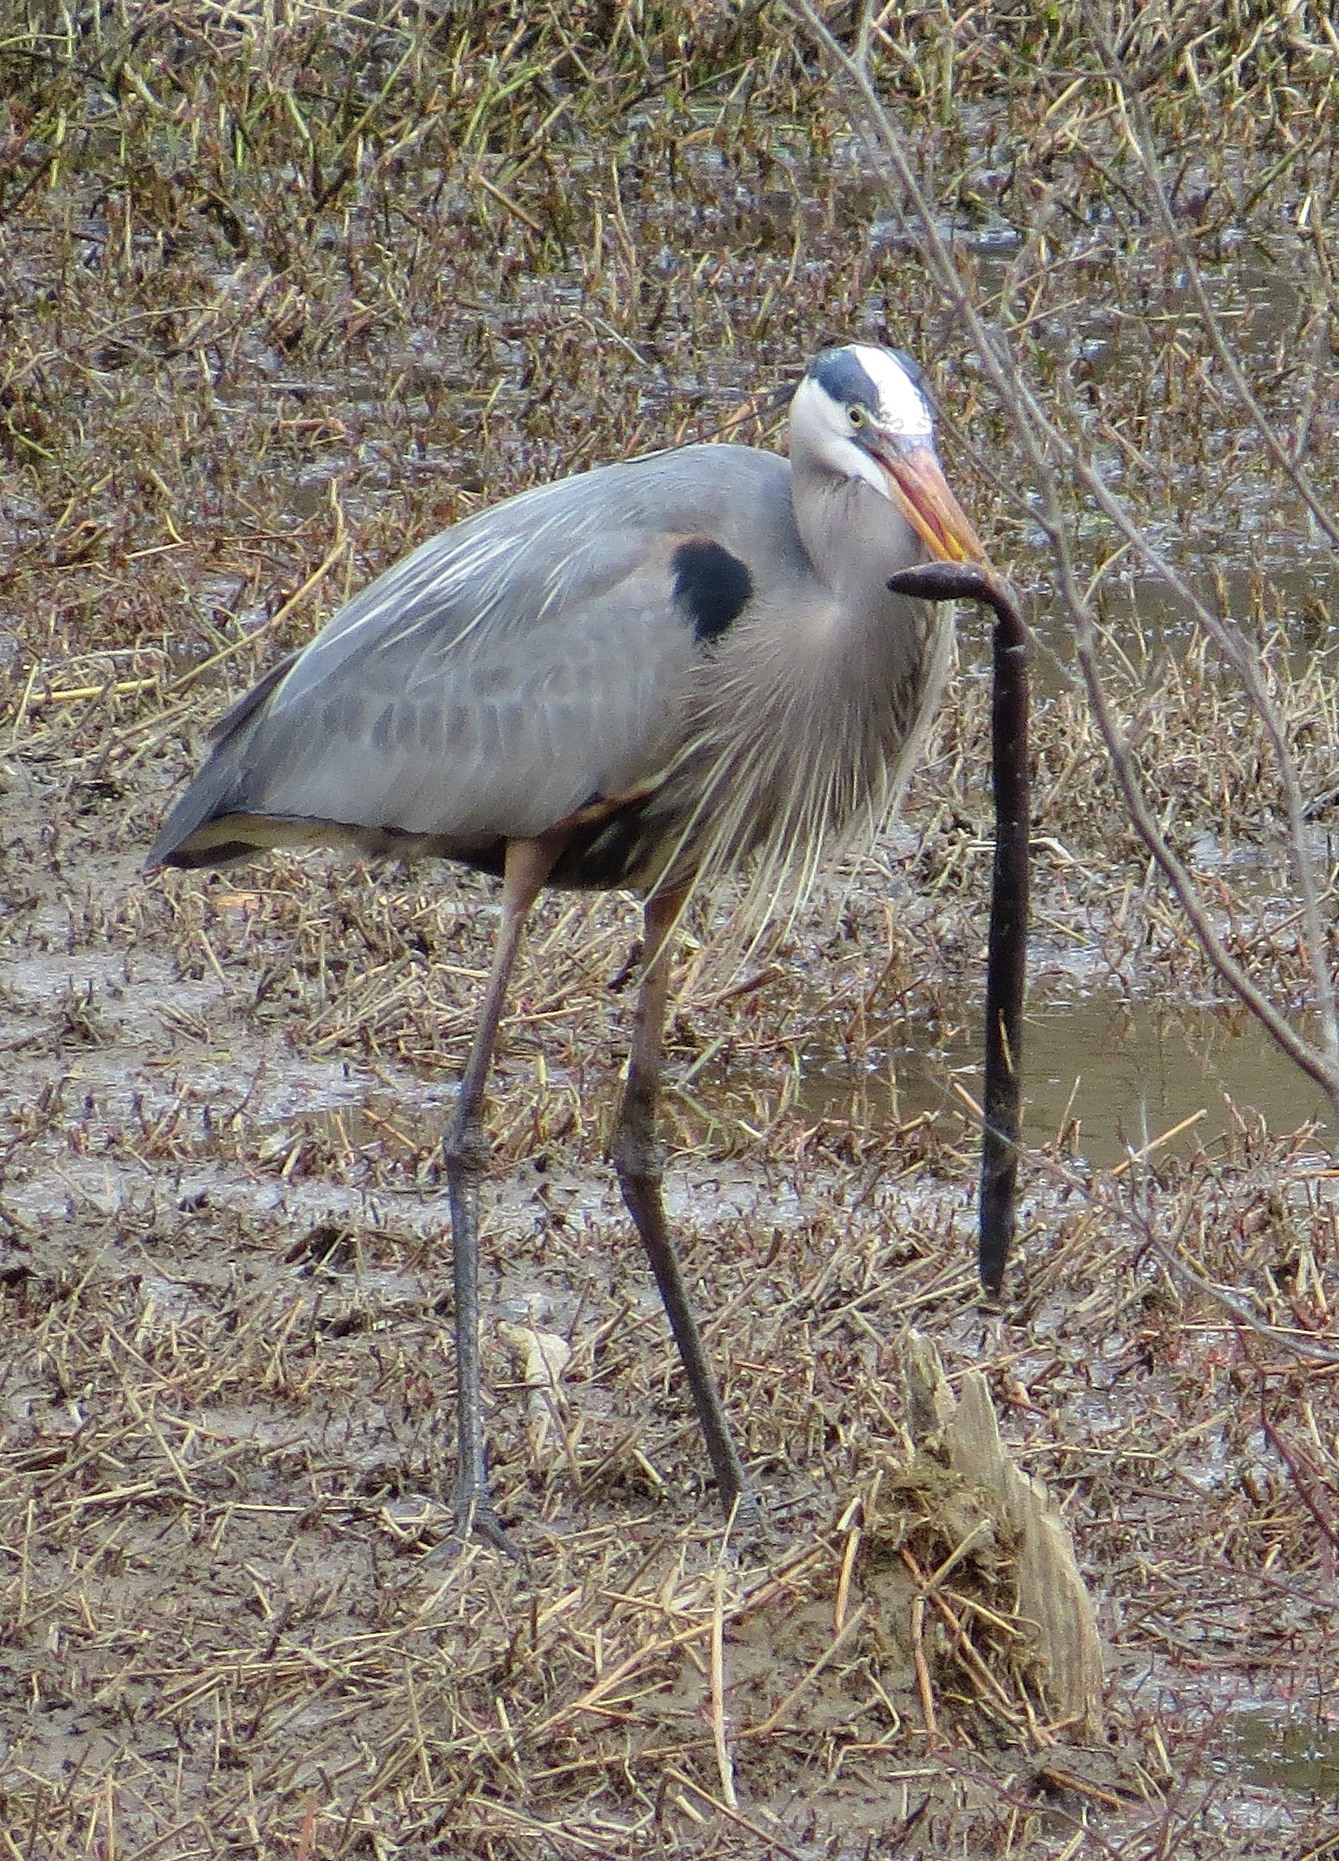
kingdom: Animalia
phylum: Chordata
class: Amphibia
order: Caudata
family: Amphiumidae
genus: Amphiuma
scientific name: Amphiuma means
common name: Two-toed amphiuma
